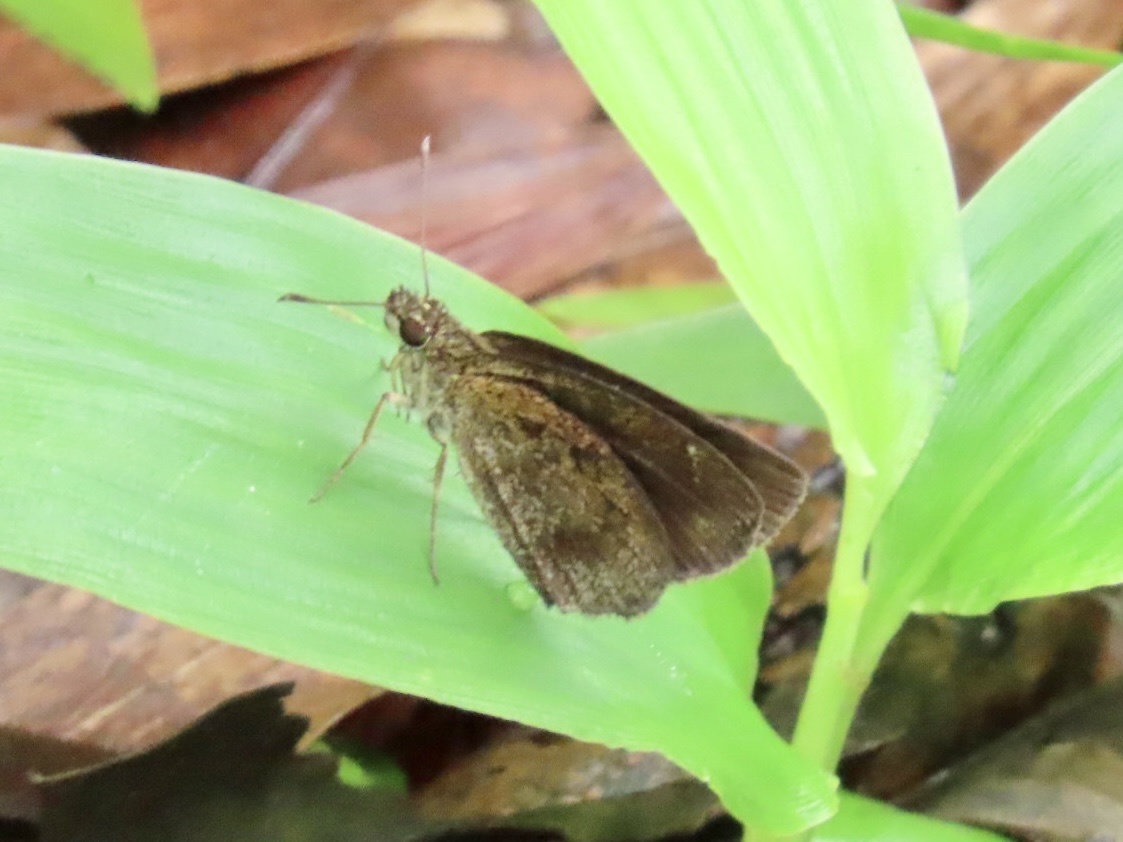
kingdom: Animalia
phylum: Arthropoda
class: Insecta
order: Lepidoptera
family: Hesperiidae
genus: Astictopterus
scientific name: Astictopterus jama
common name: Forest hopper
